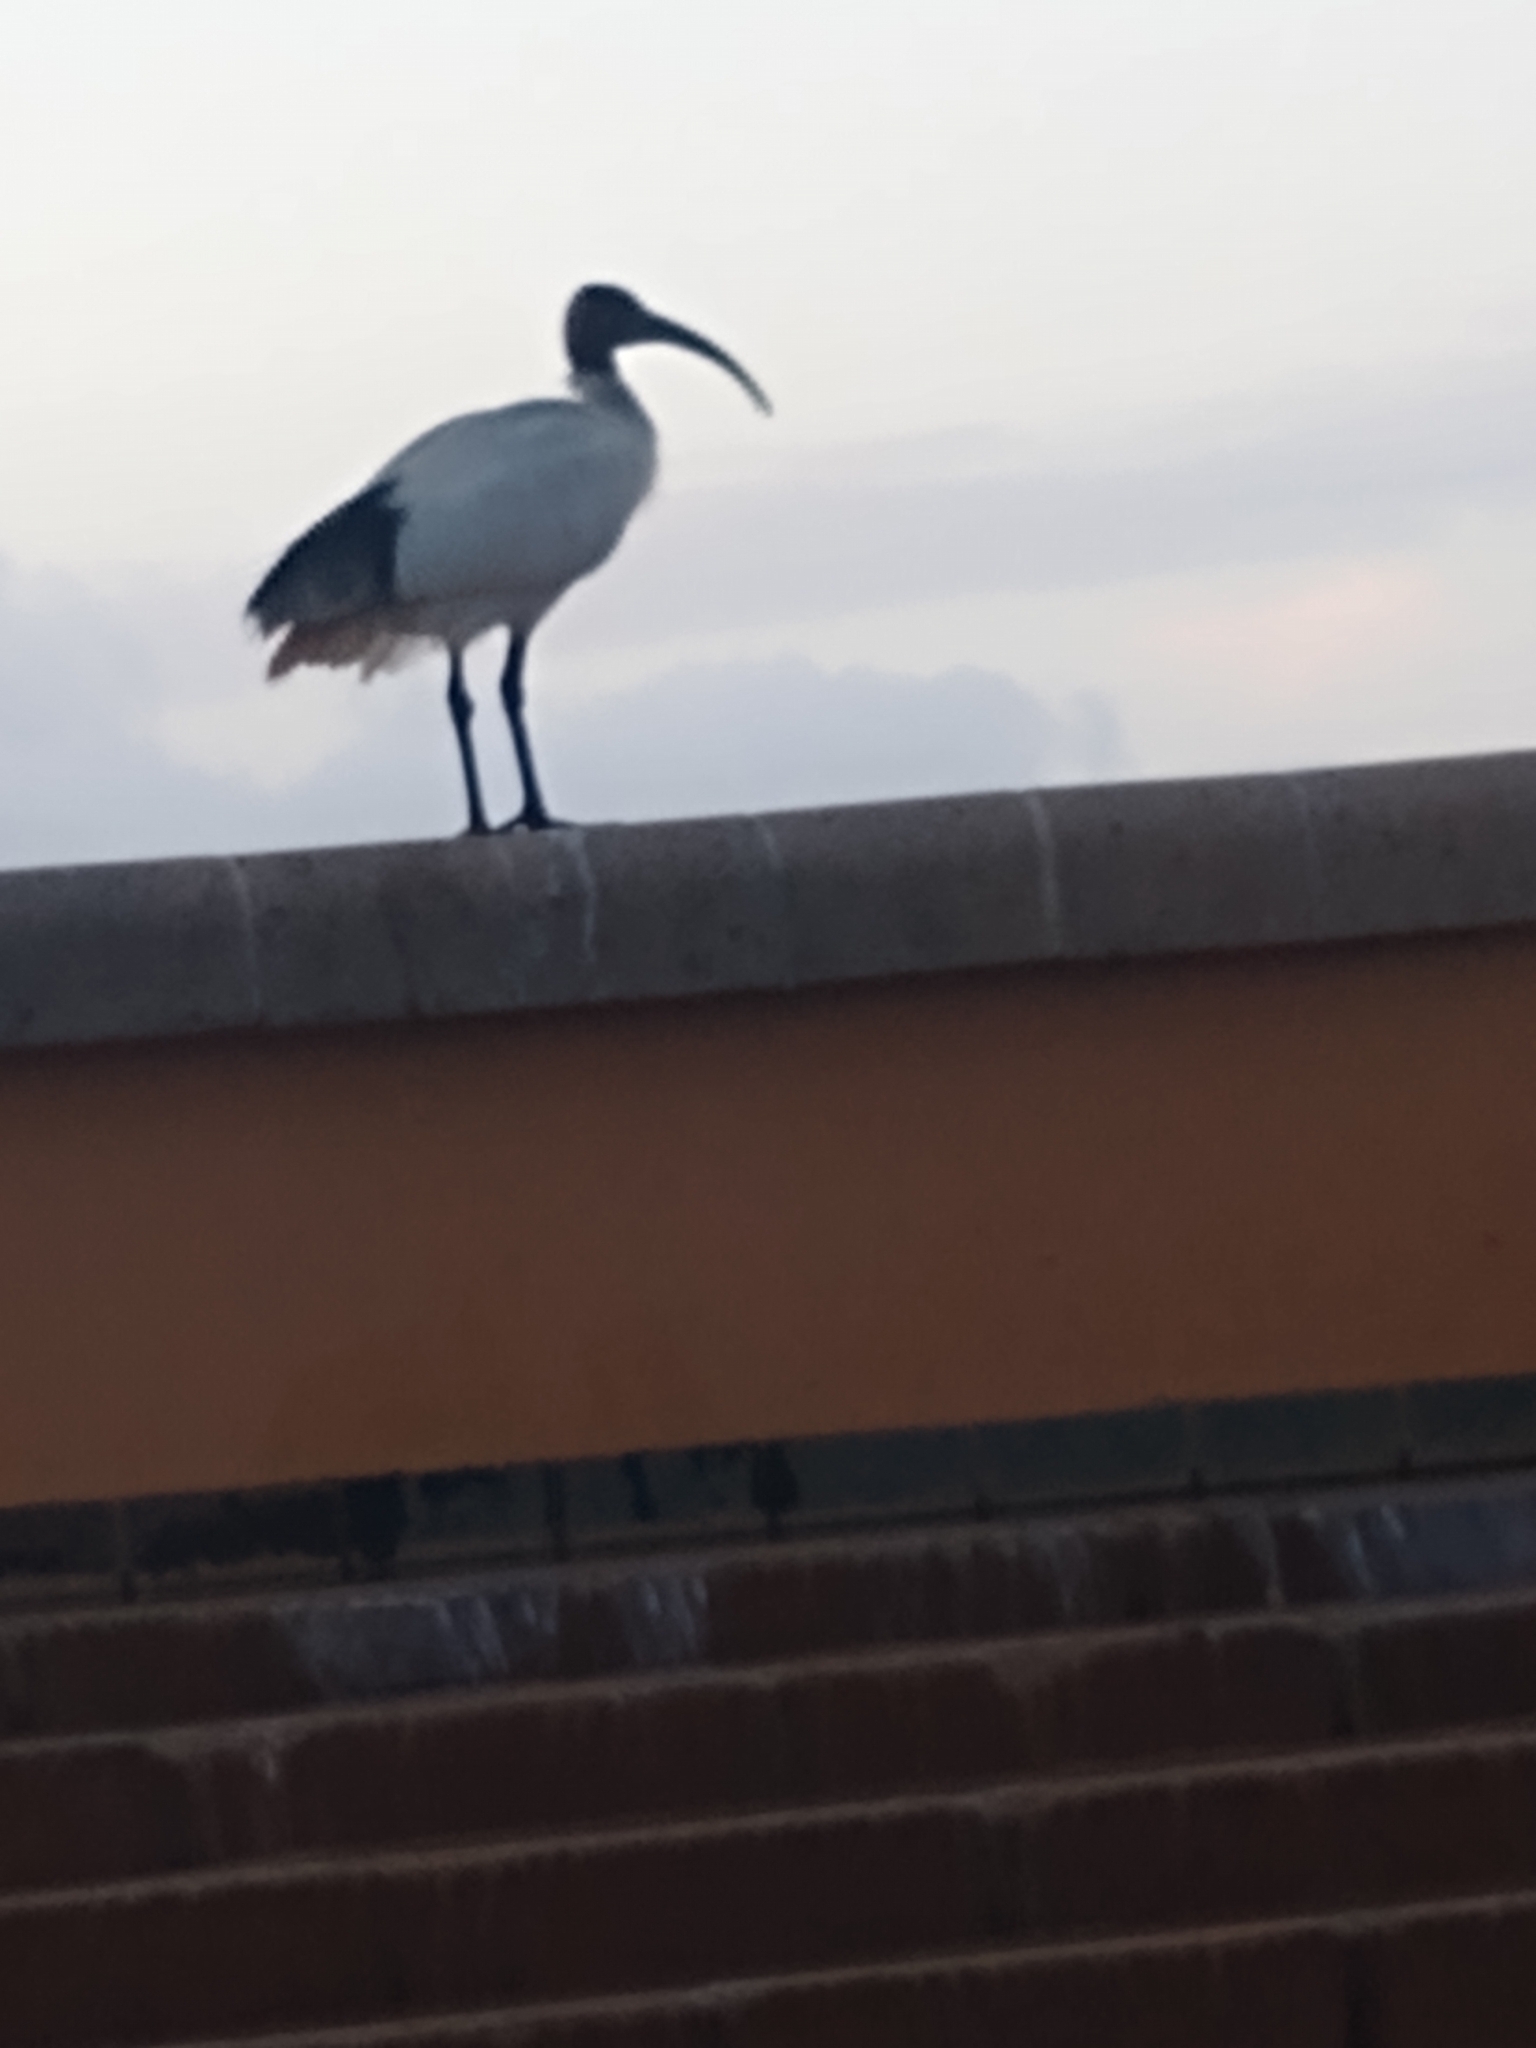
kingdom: Animalia
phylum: Chordata
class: Aves
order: Pelecaniformes
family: Threskiornithidae
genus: Threskiornis
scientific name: Threskiornis molucca
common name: Australian white ibis
